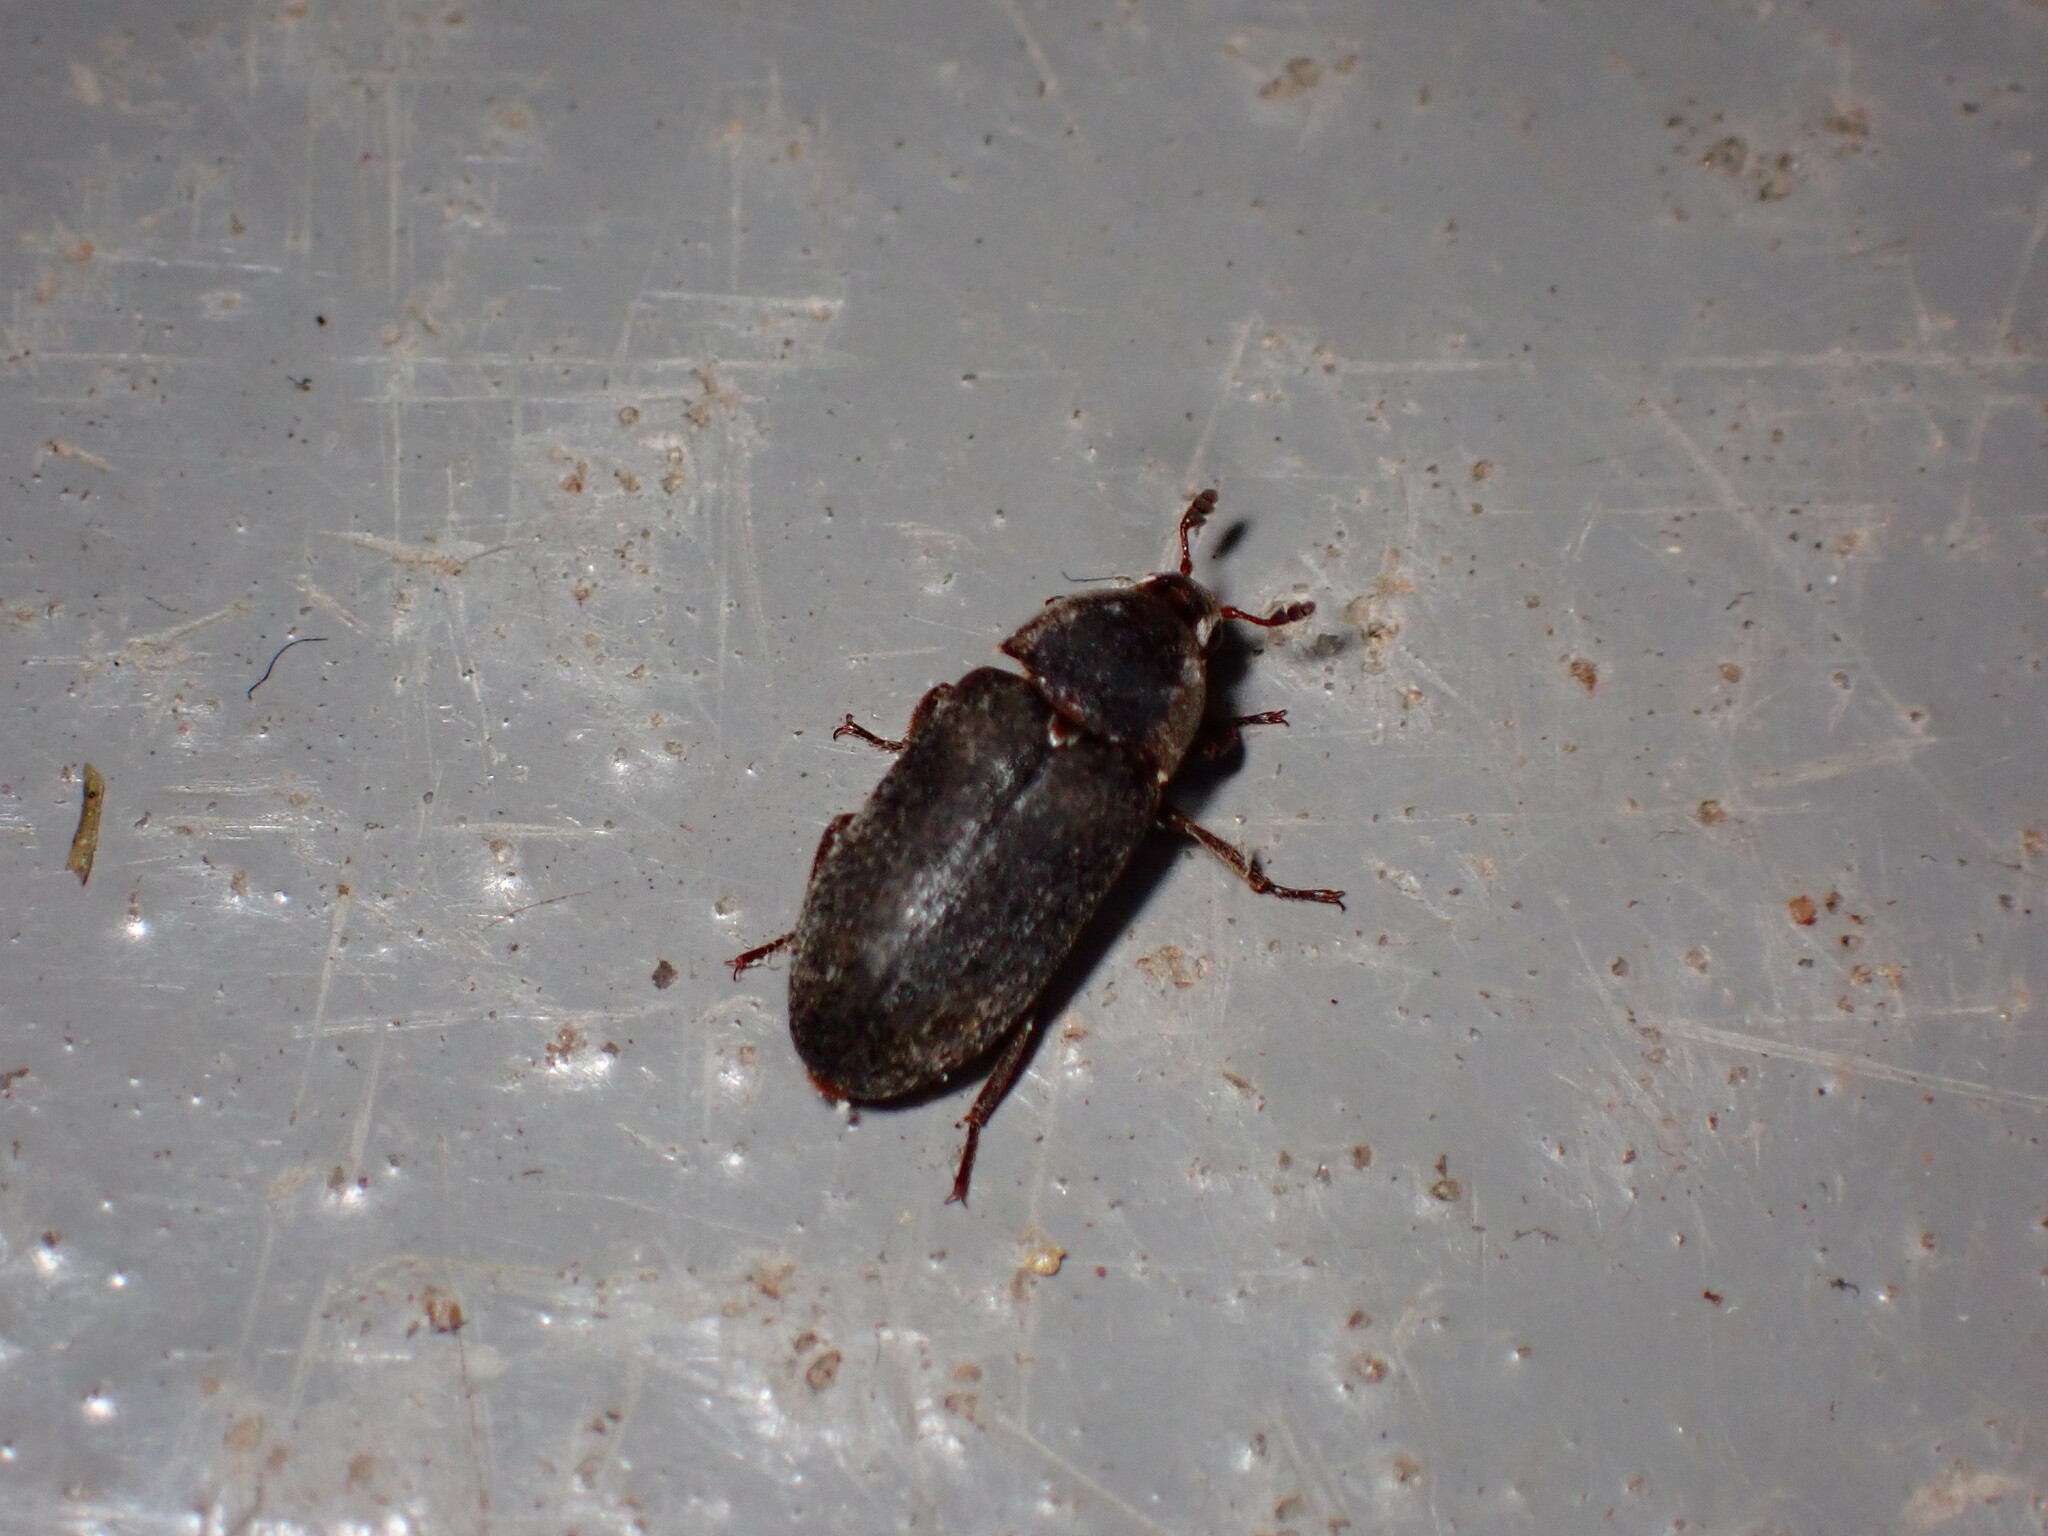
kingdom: Animalia
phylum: Arthropoda
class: Insecta
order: Coleoptera
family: Dermestidae
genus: Dermestes
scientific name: Dermestes maculatus
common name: Hide beetle
